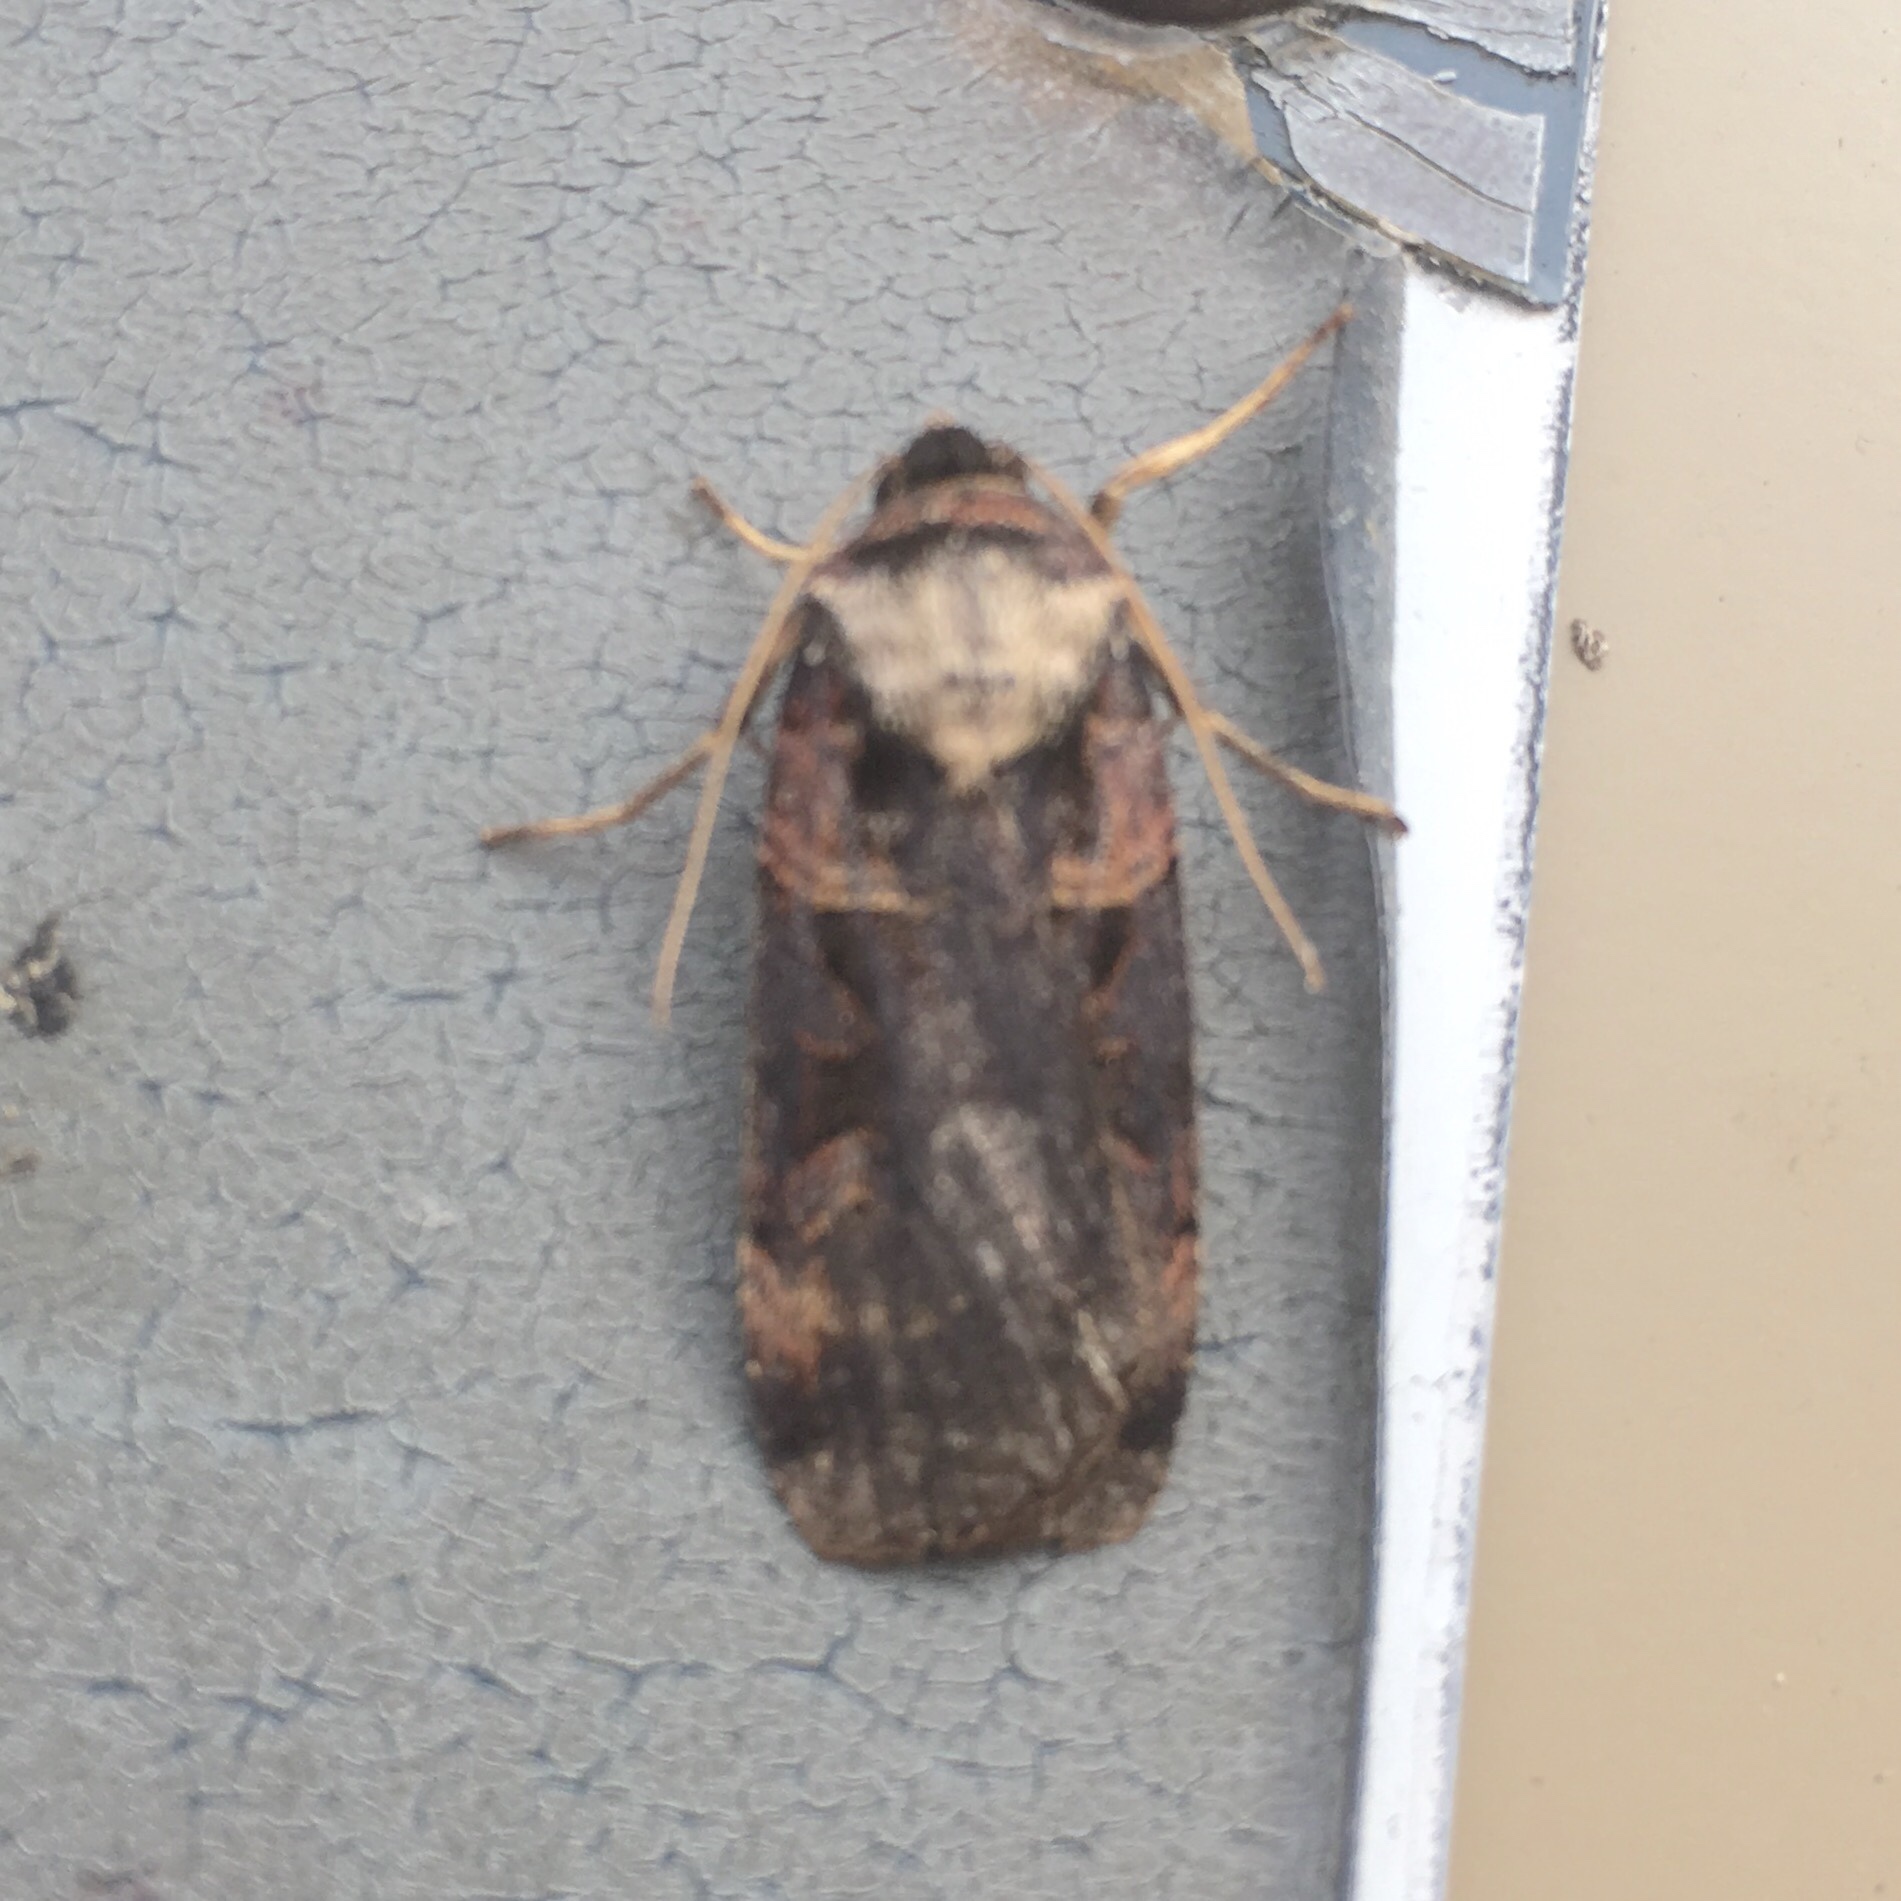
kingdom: Animalia
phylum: Arthropoda
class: Insecta
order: Lepidoptera
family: Noctuidae
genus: Pseudohermonassa
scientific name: Pseudohermonassa bicarnea
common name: Pink spotted dart
